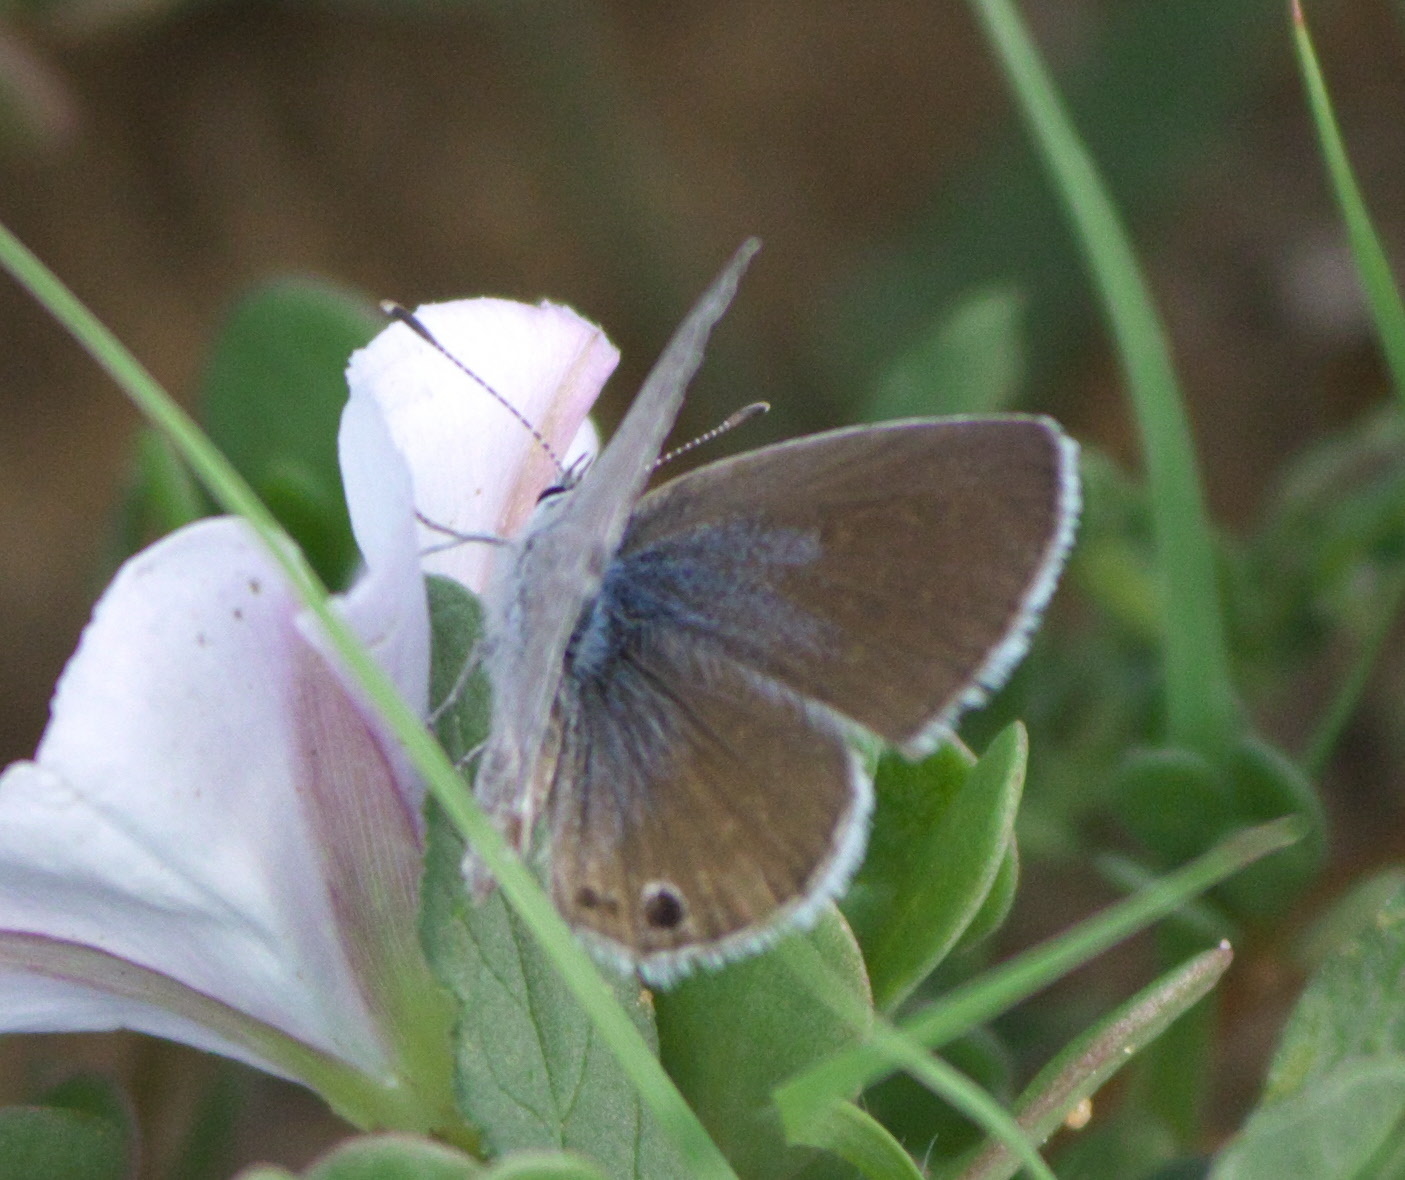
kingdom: Animalia
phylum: Arthropoda
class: Insecta
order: Lepidoptera
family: Lycaenidae
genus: Echinargus
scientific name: Echinargus isola
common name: Reakirt's blue
